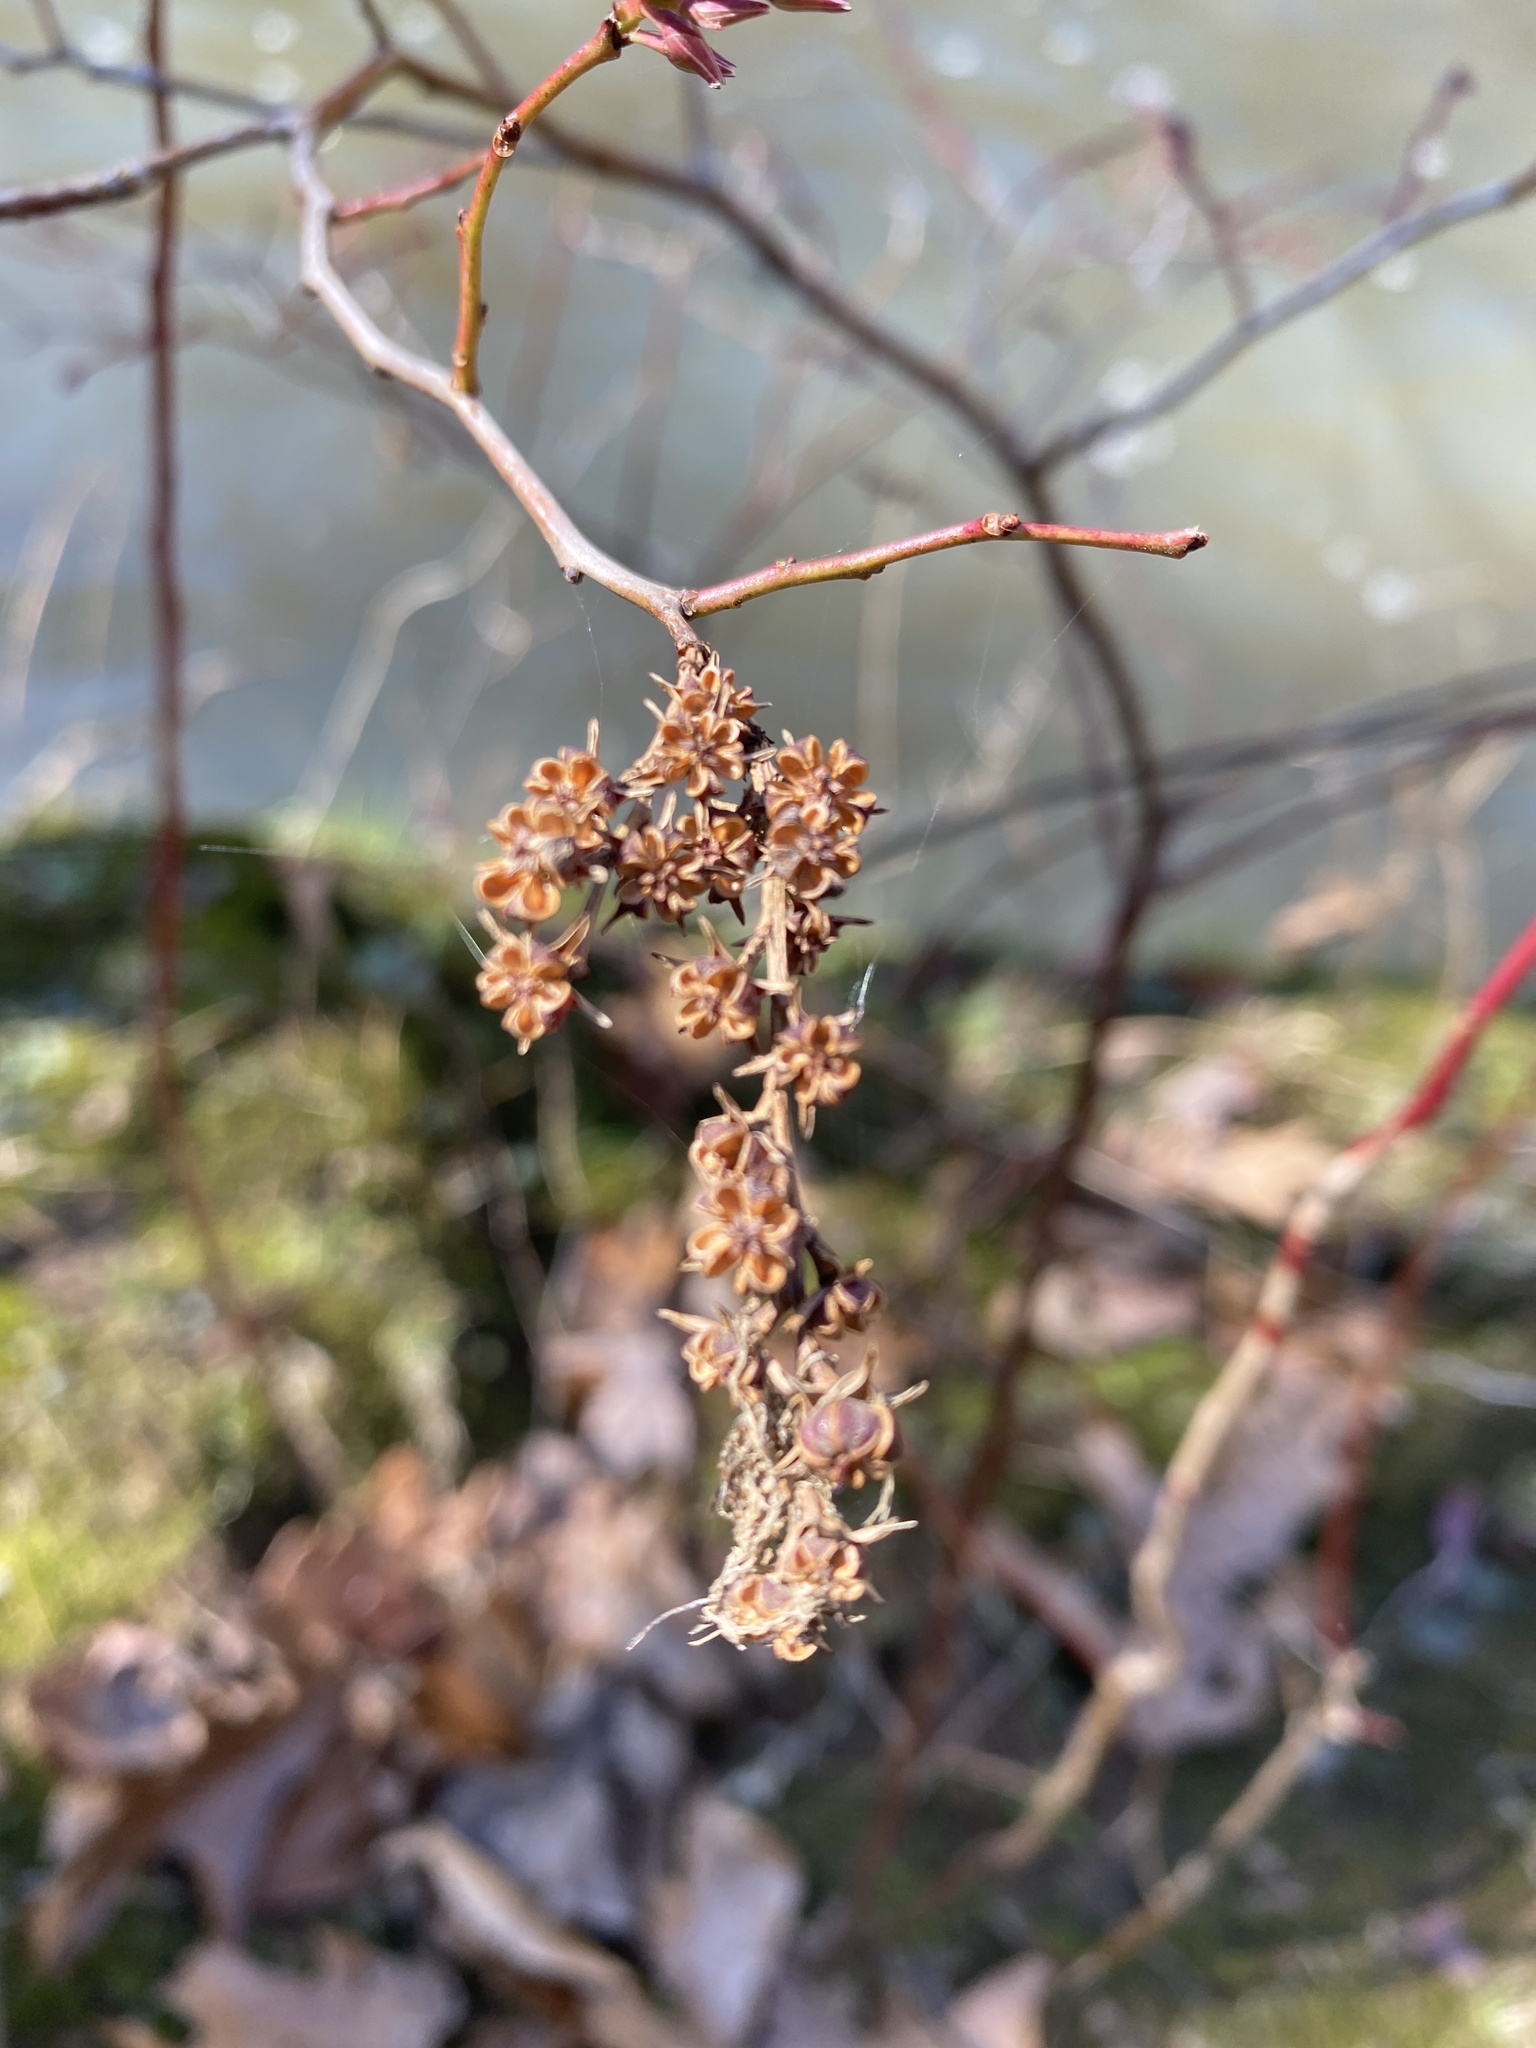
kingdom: Plantae
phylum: Tracheophyta
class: Magnoliopsida
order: Saxifragales
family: Iteaceae
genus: Itea
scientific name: Itea virginica
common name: Sweetspire
